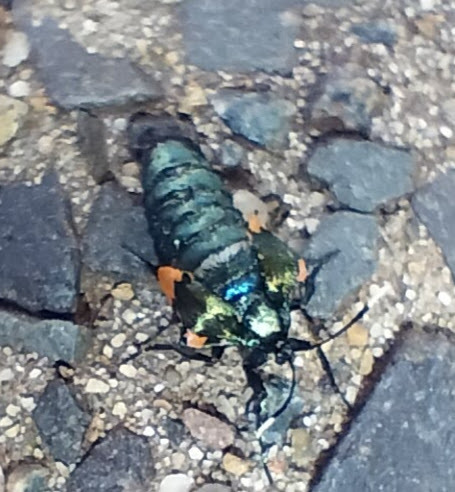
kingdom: Animalia
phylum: Arthropoda
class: Insecta
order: Lepidoptera
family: Psychidae
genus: Cebysa
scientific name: Cebysa leucotelus
